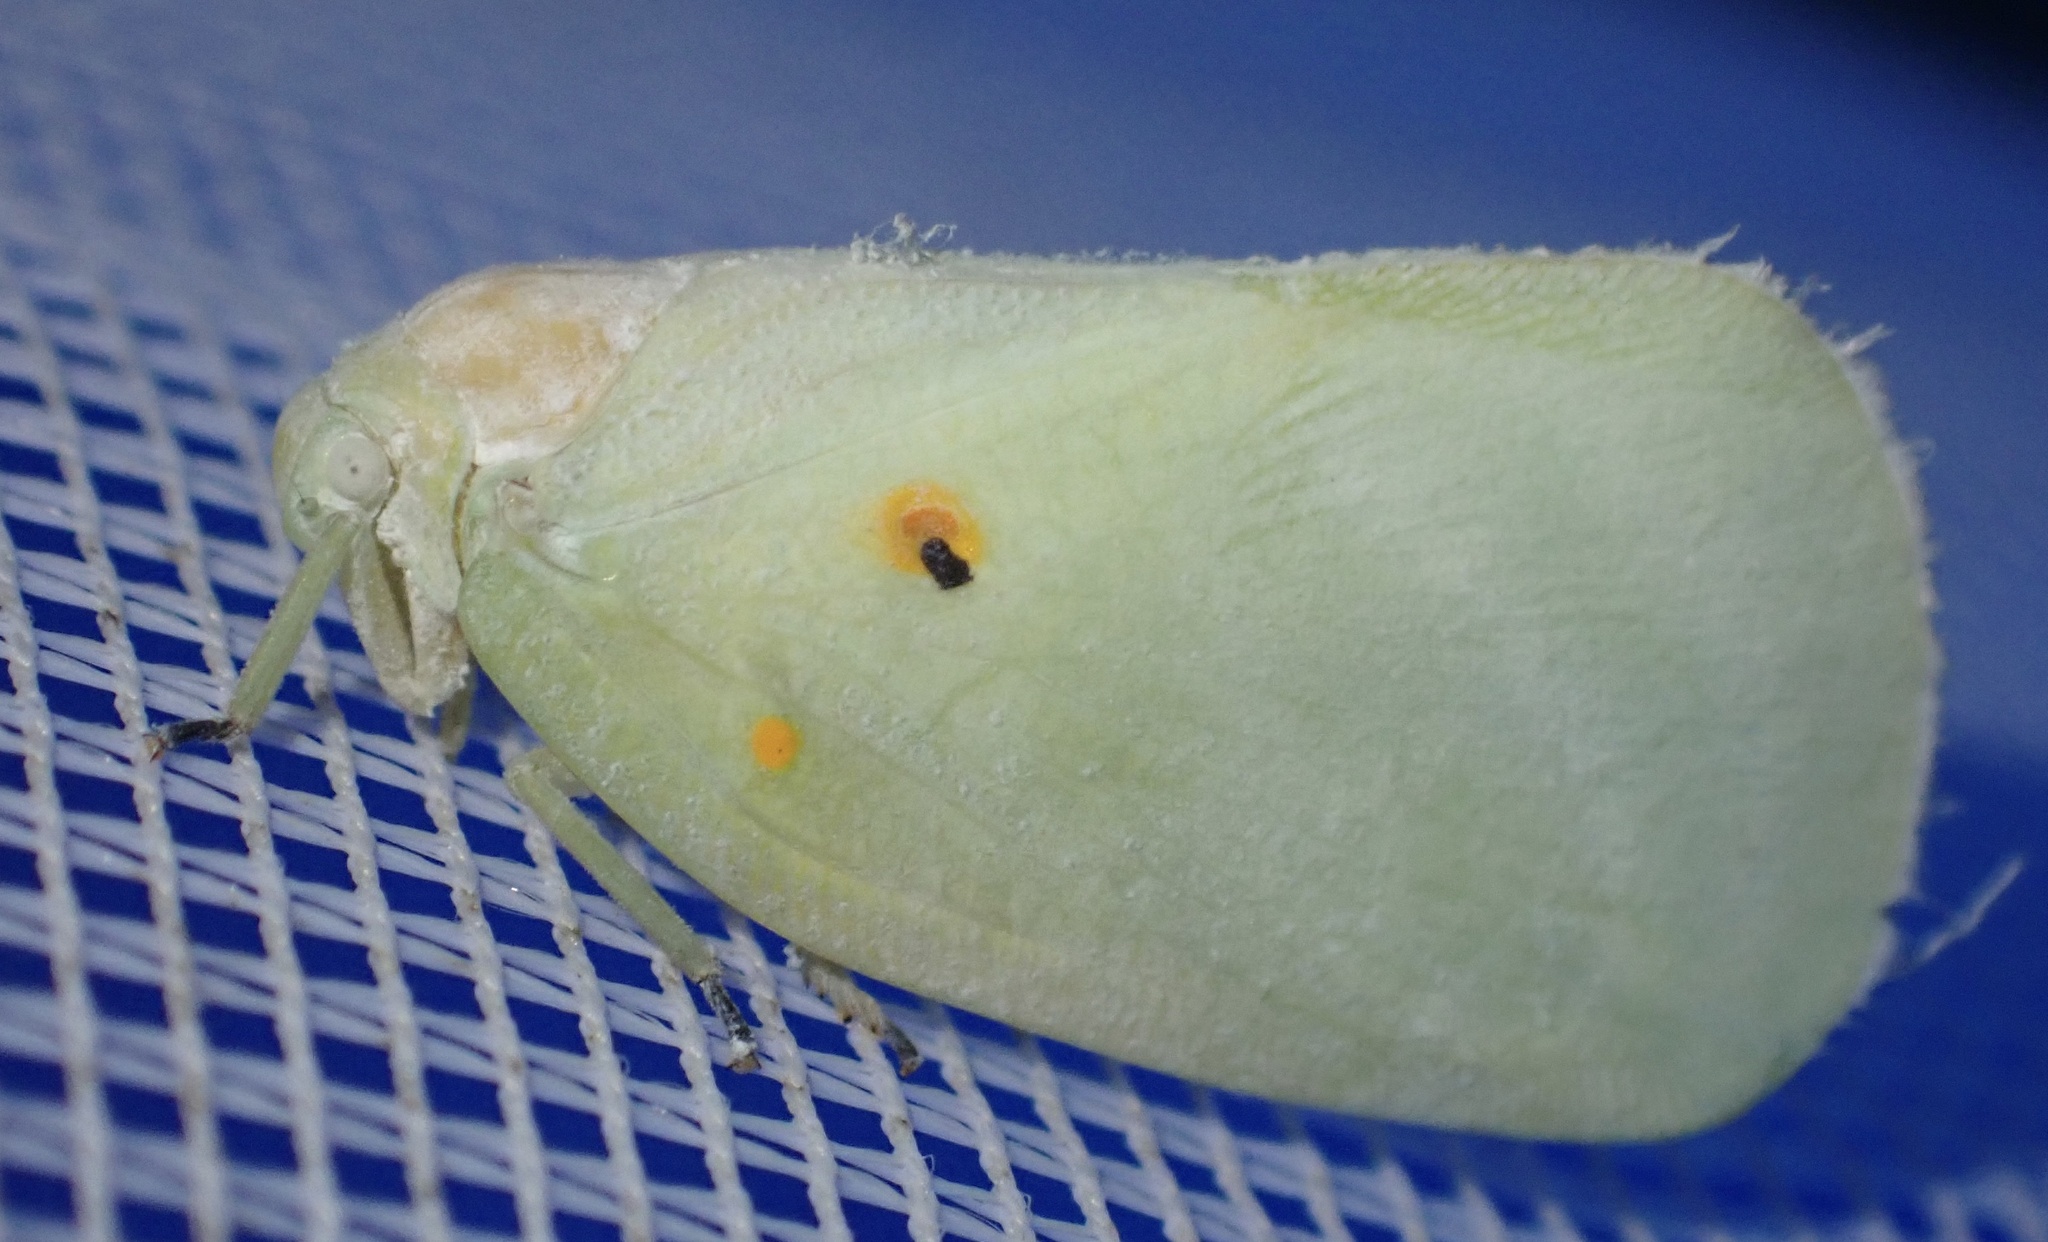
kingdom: Animalia
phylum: Arthropoda
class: Insecta
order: Hemiptera
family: Flatidae
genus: Poeciloflata
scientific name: Poeciloflata
